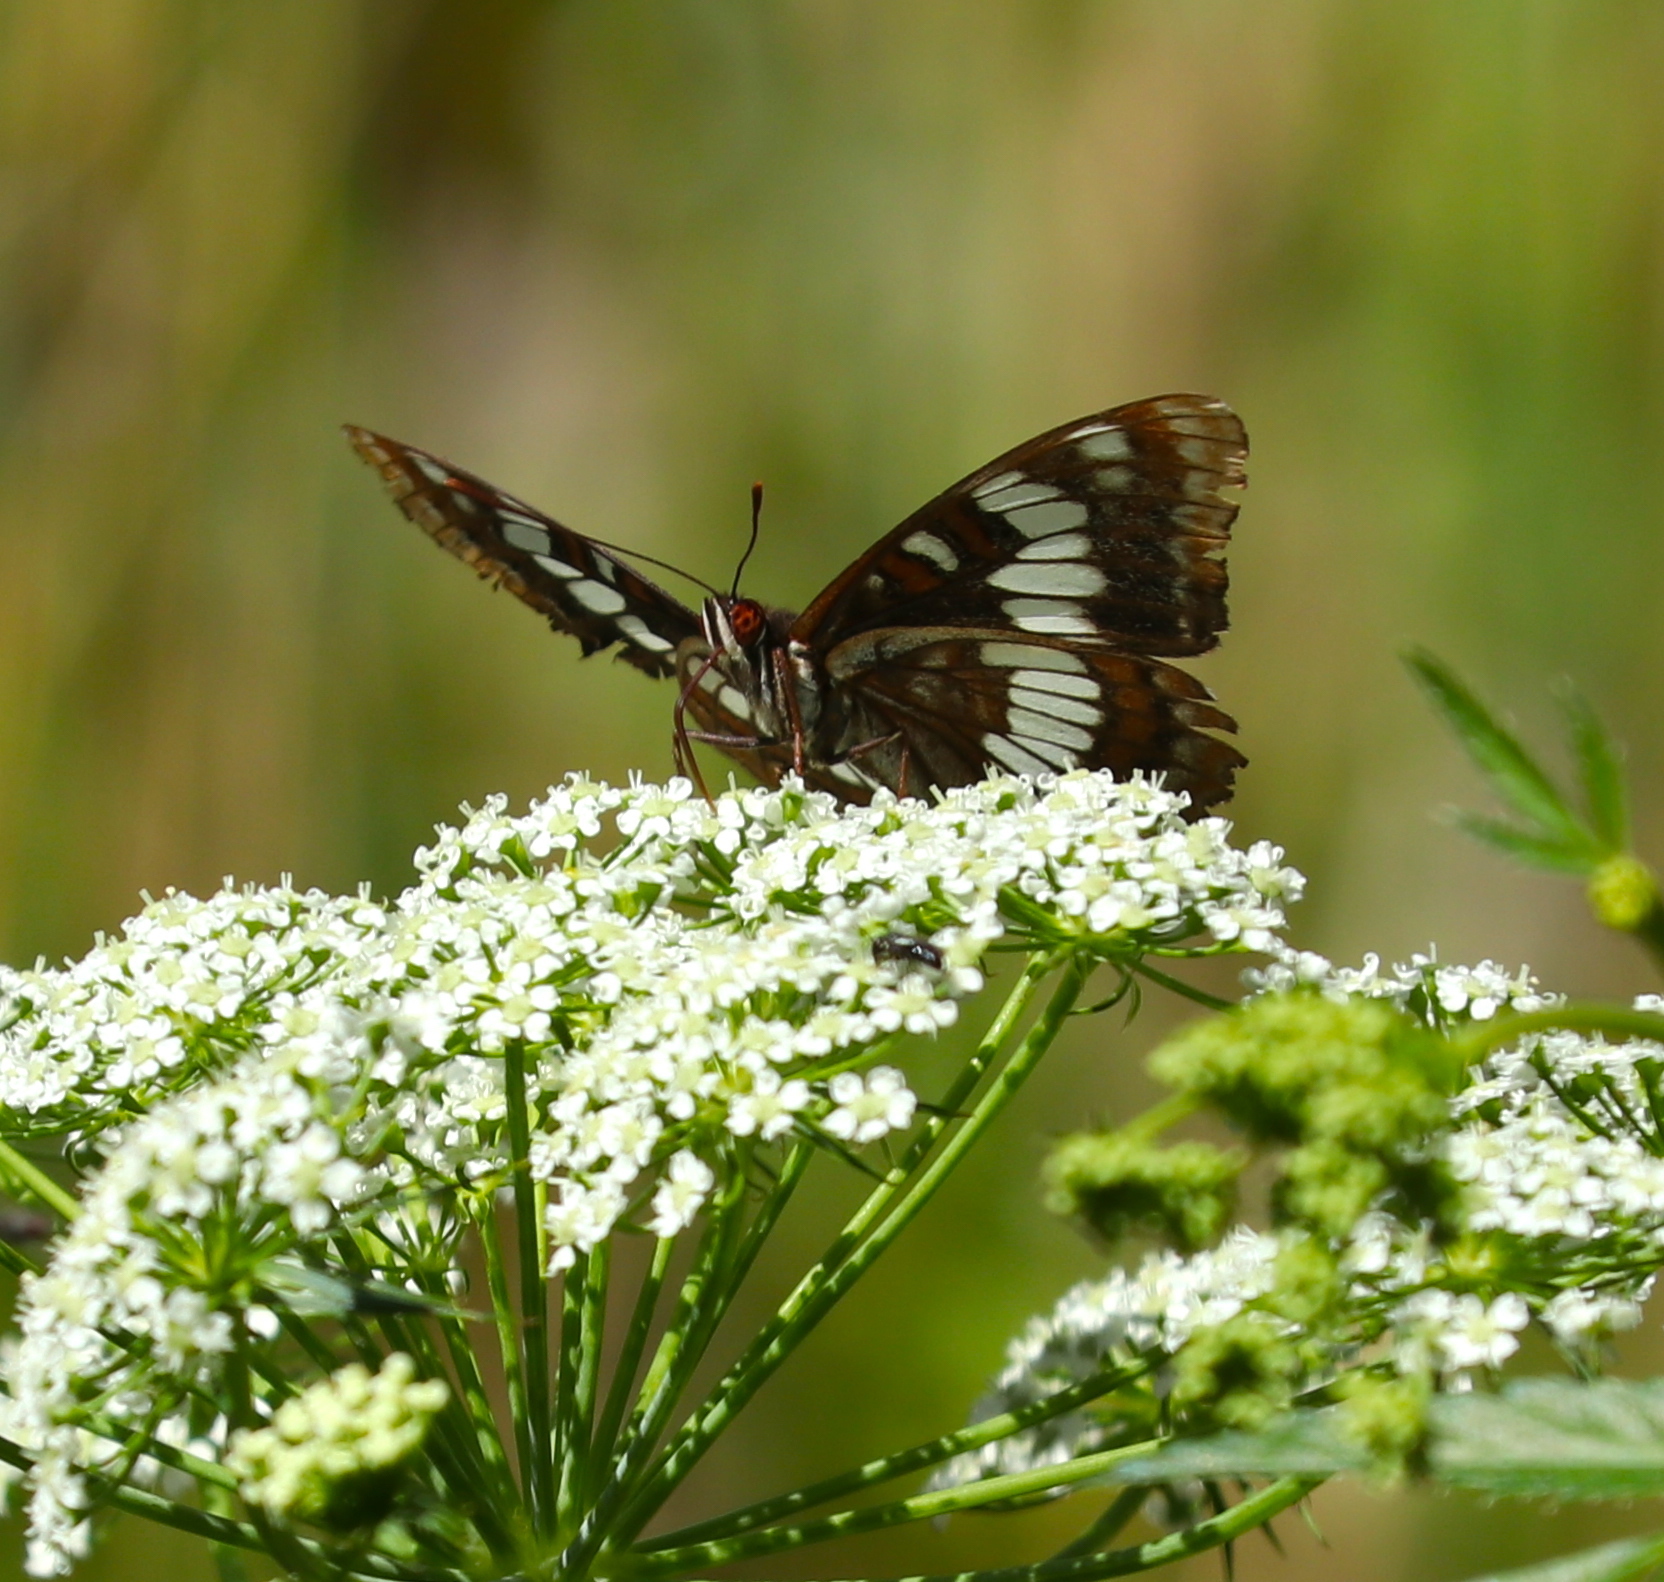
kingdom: Animalia
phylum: Arthropoda
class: Insecta
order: Lepidoptera
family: Nymphalidae
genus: Limenitis
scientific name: Limenitis lorquini
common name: Lorquin's admiral
